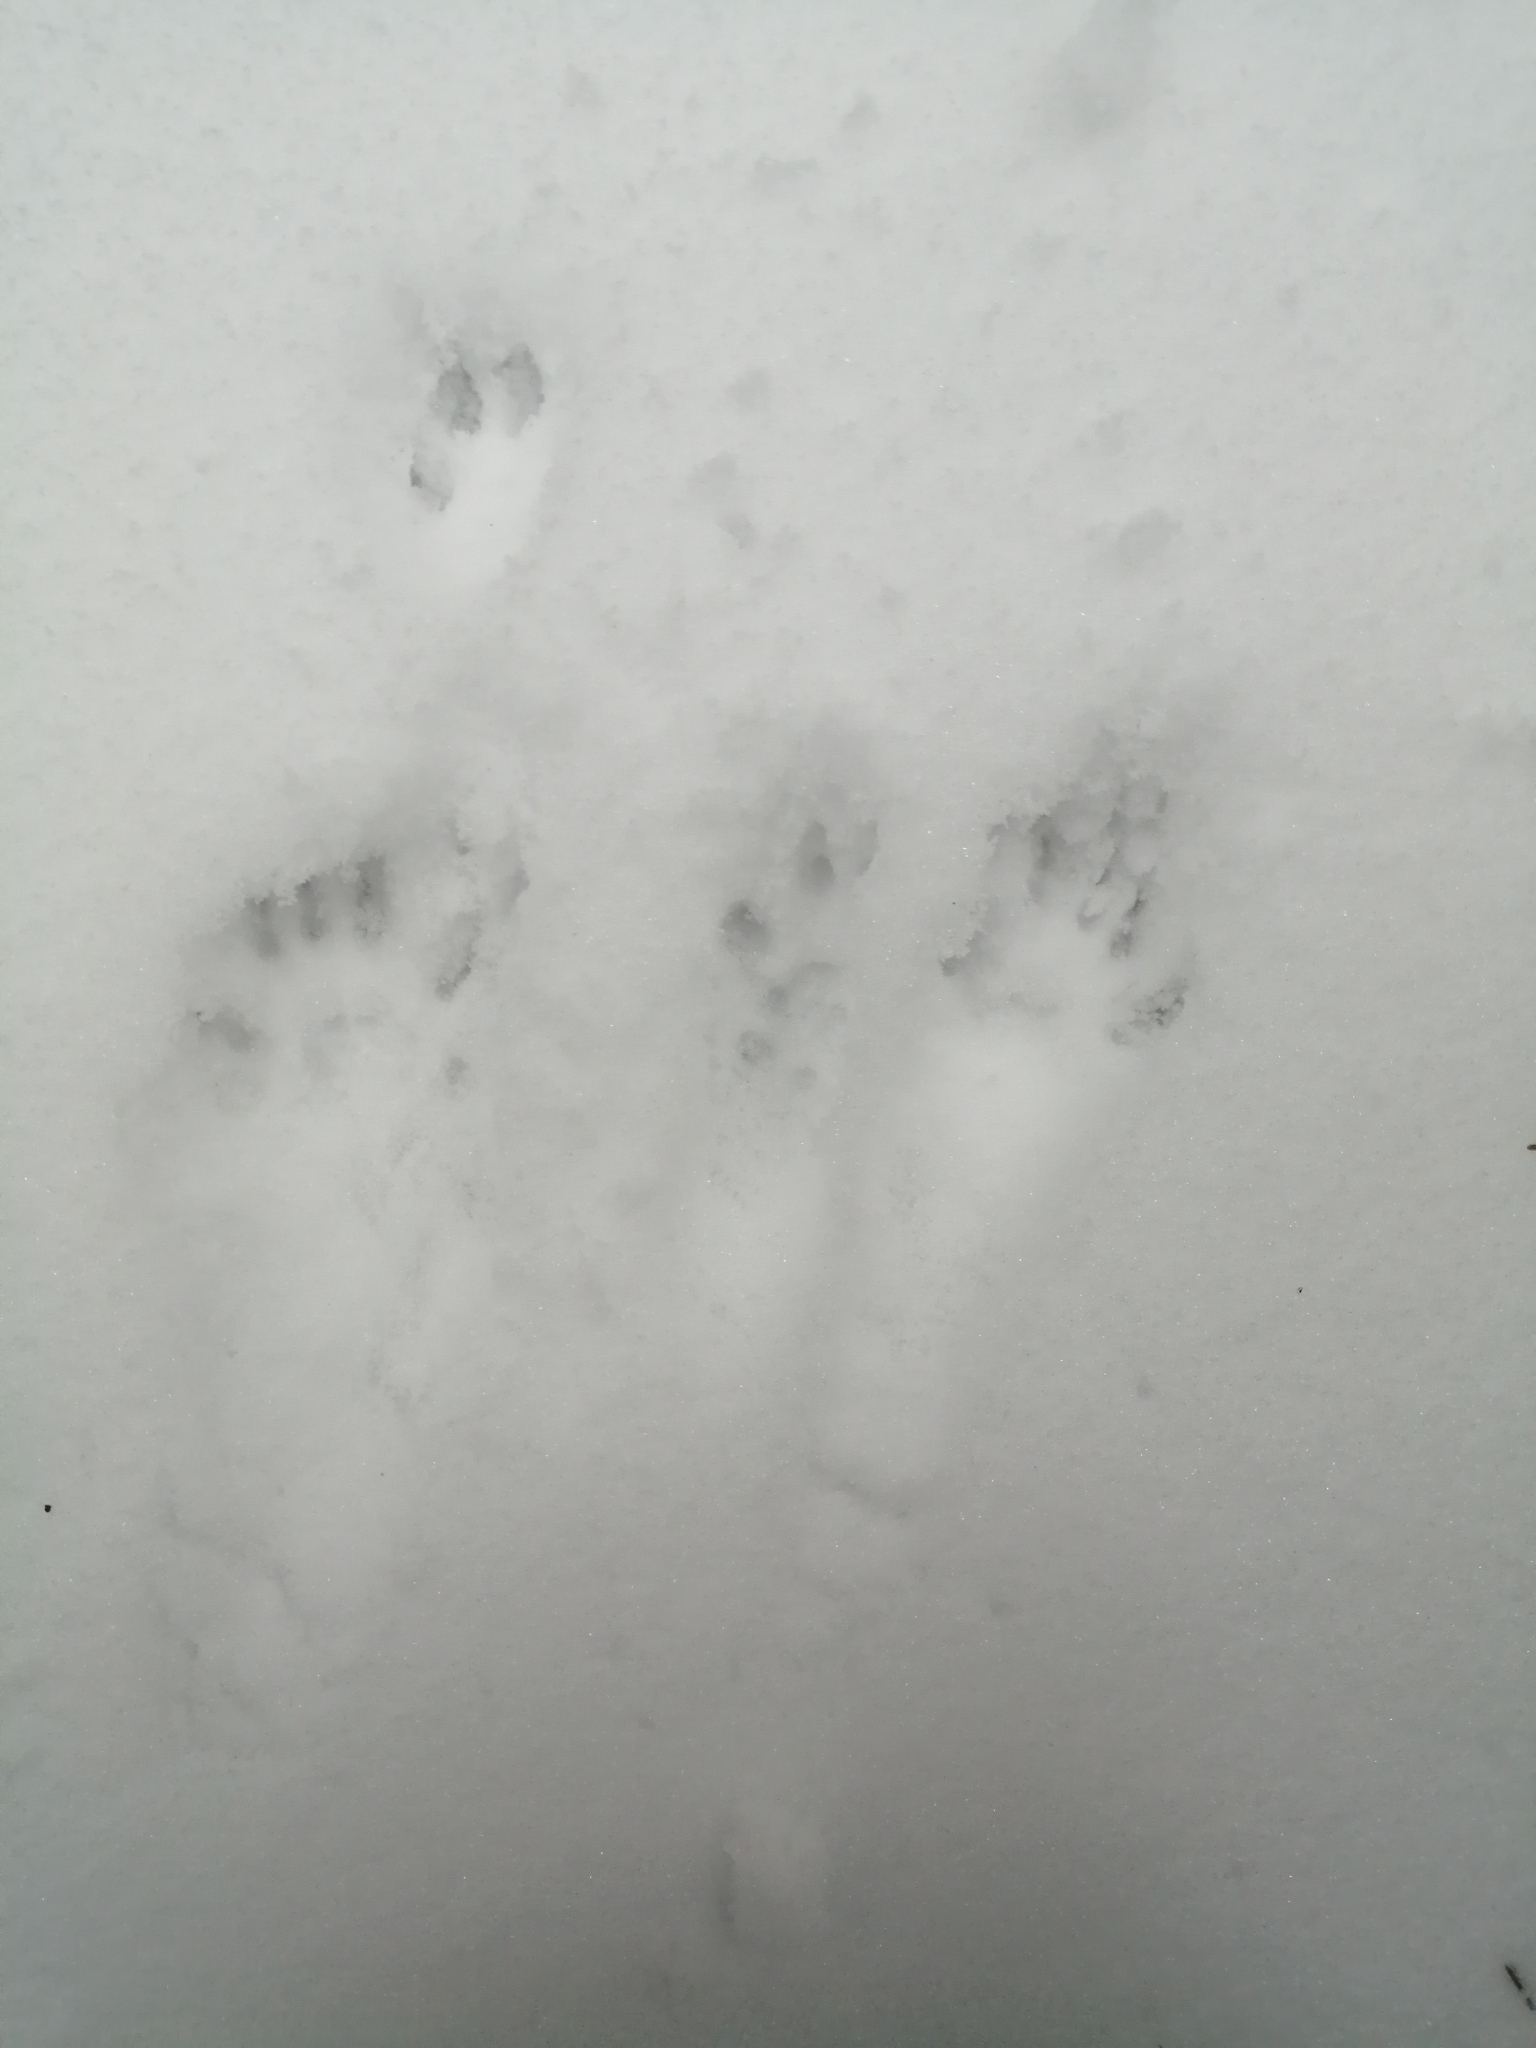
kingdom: Animalia
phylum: Chordata
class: Mammalia
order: Rodentia
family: Sciuridae
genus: Sciurus
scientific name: Sciurus vulgaris
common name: Eurasian red squirrel
